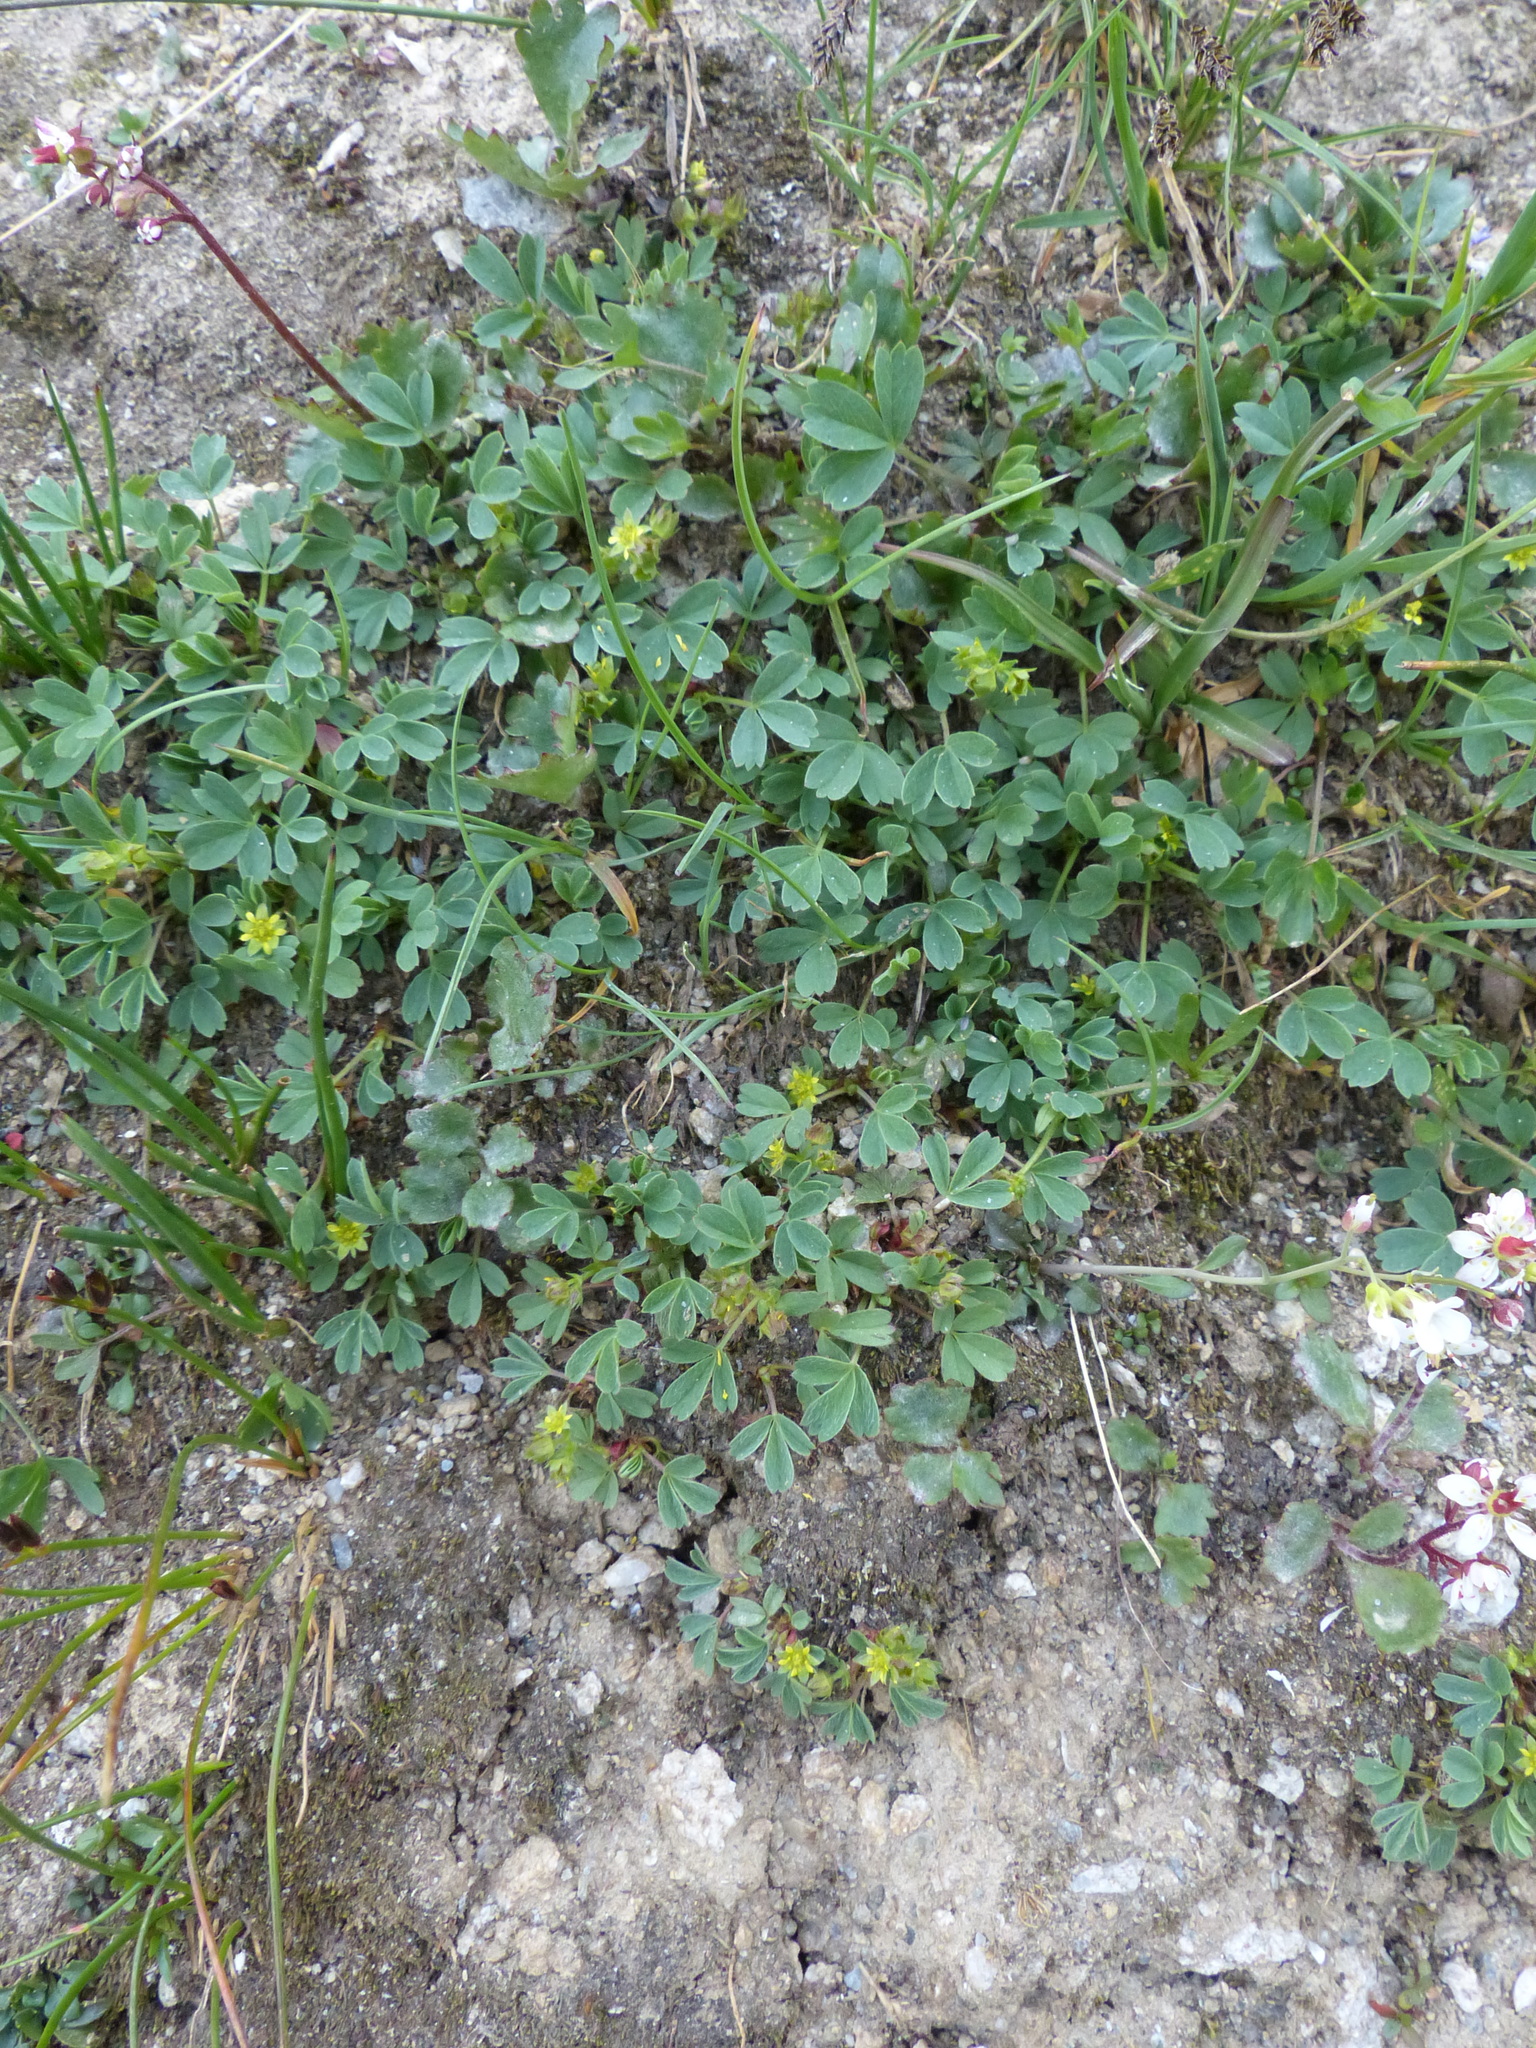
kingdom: Plantae
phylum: Tracheophyta
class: Magnoliopsida
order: Rosales
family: Rosaceae
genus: Sibbaldia
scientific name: Sibbaldia procumbens
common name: Creeping sibbaldia
